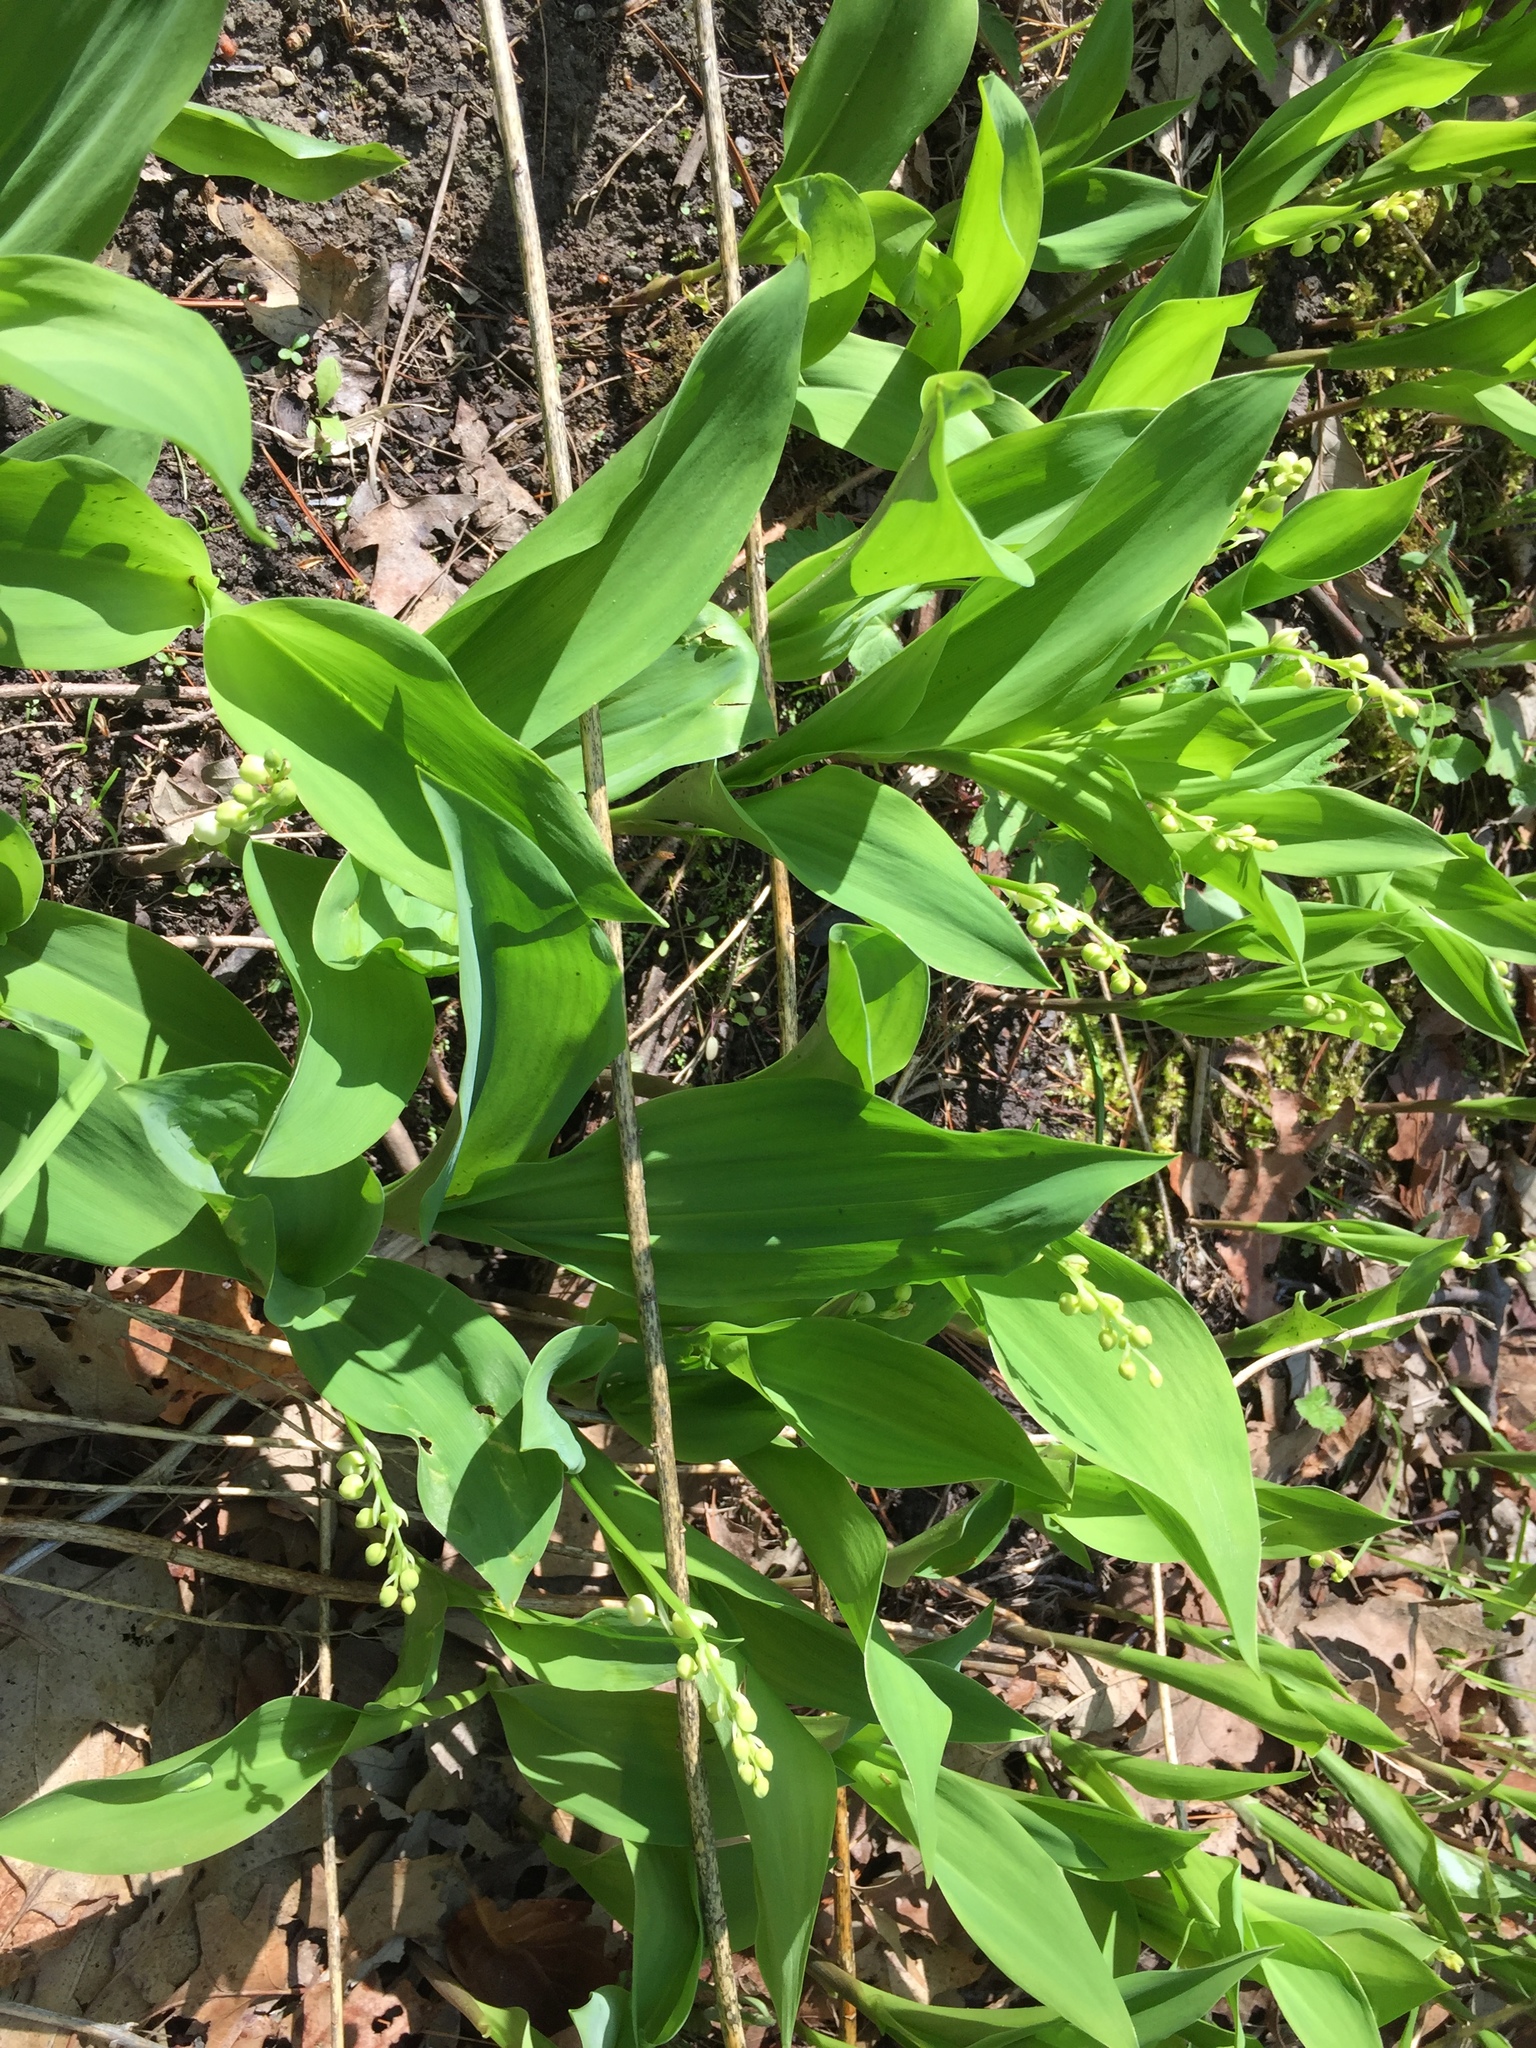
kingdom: Plantae
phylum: Tracheophyta
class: Liliopsida
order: Asparagales
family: Asparagaceae
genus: Convallaria
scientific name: Convallaria majalis
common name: Lily-of-the-valley
